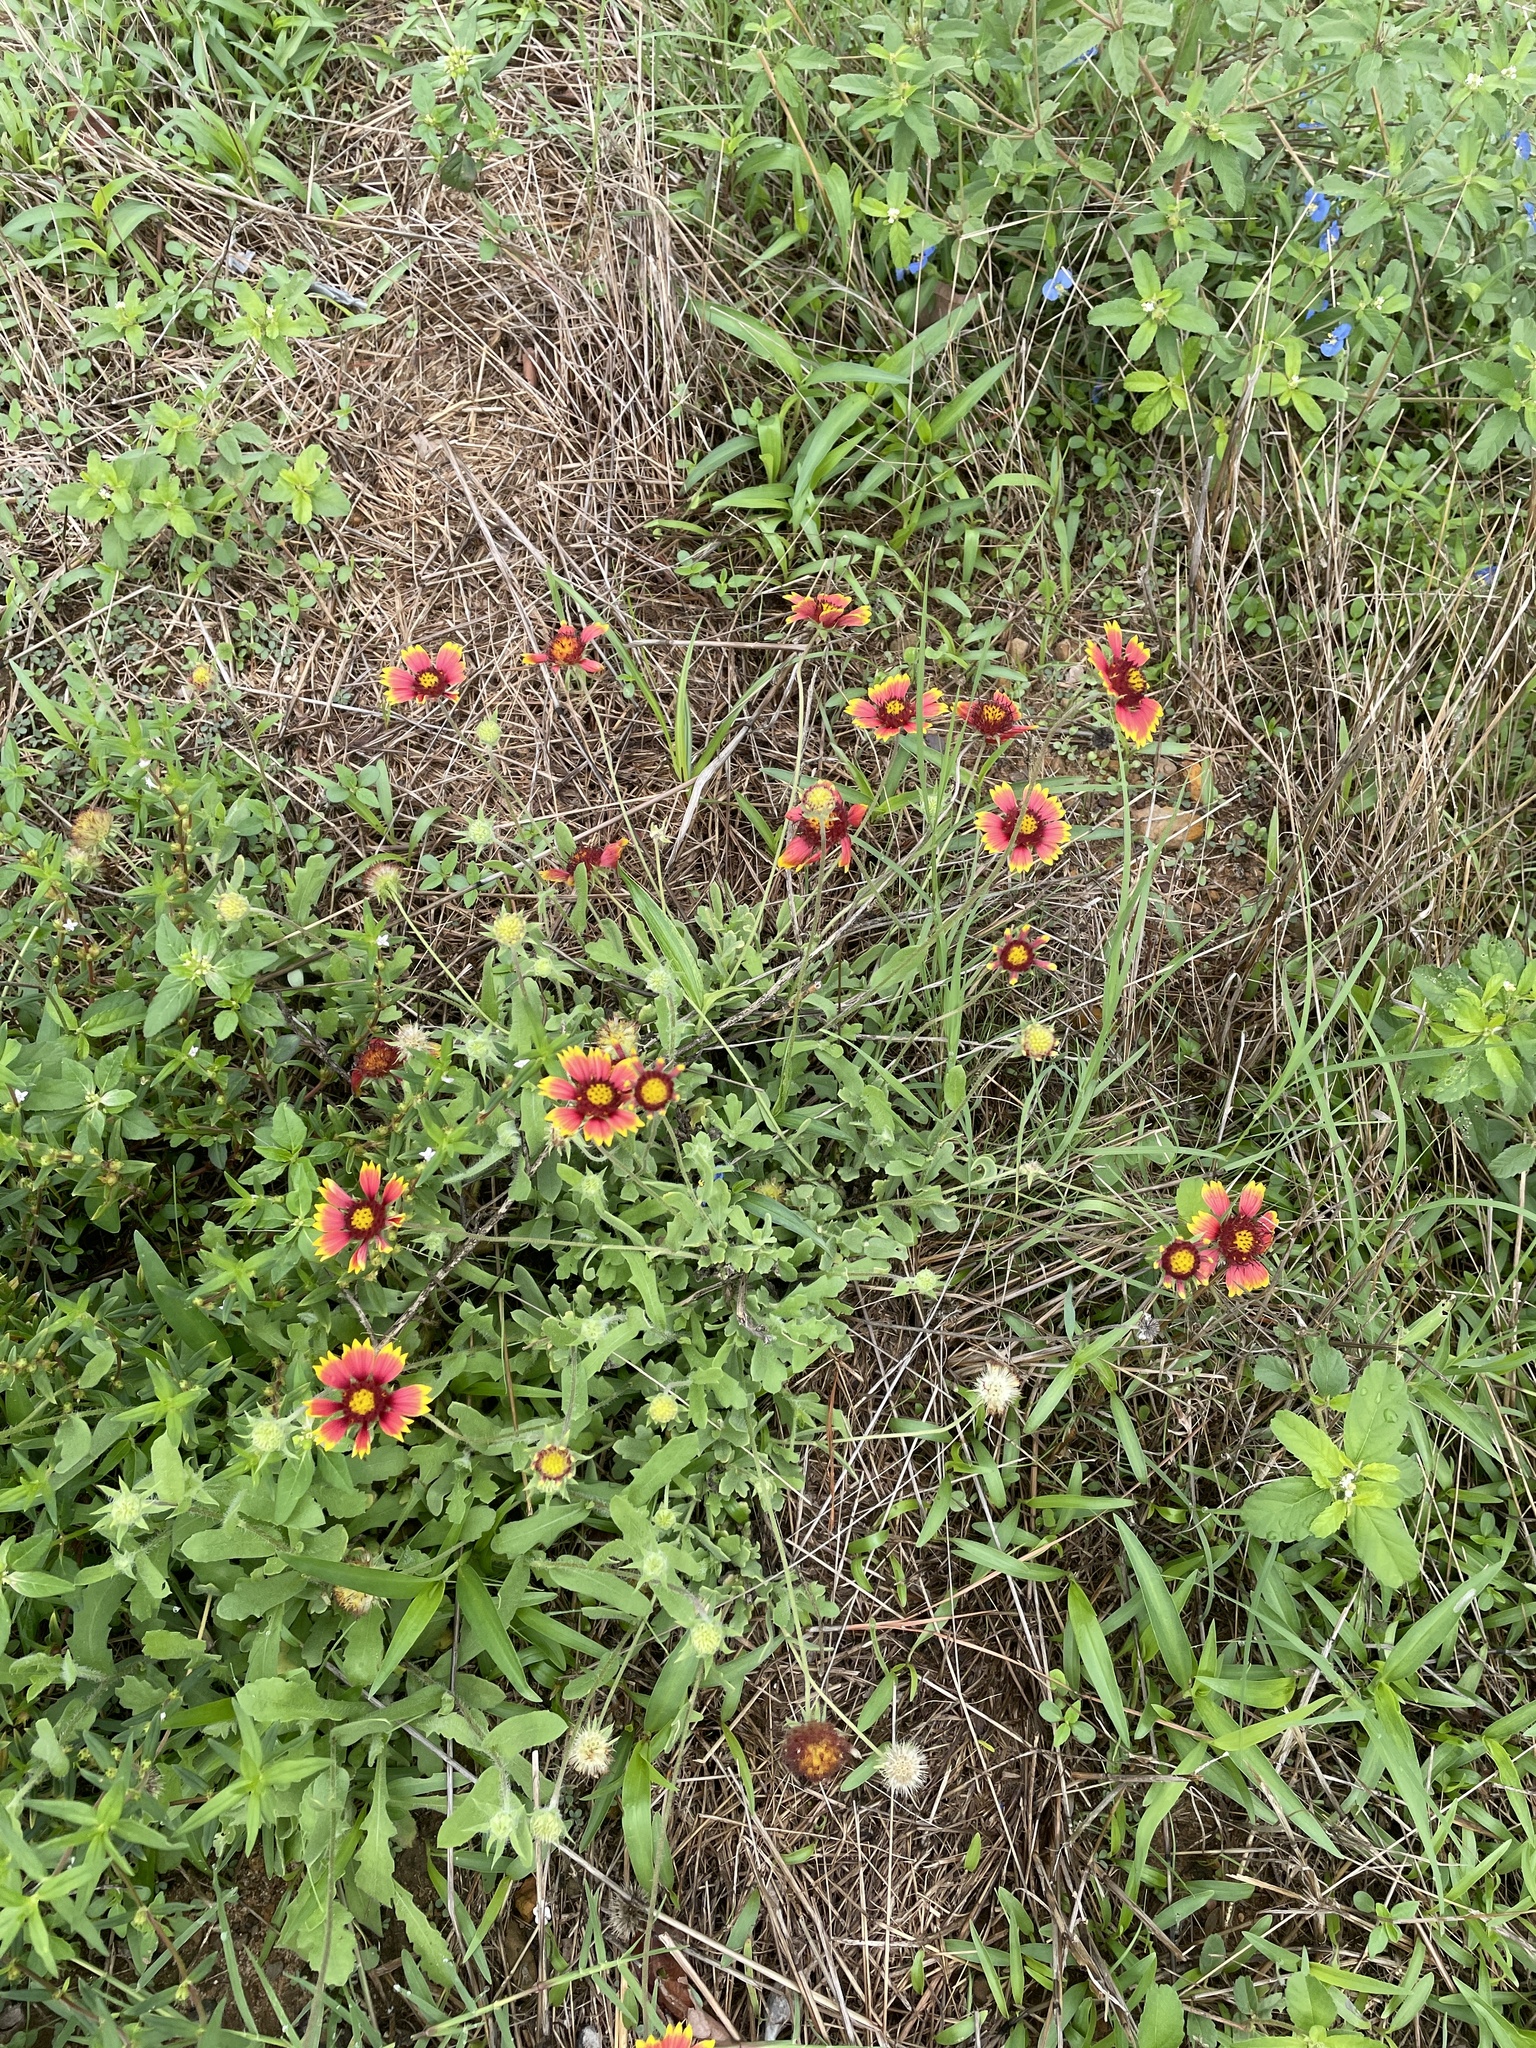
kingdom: Plantae
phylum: Tracheophyta
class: Magnoliopsida
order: Asterales
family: Asteraceae
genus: Gaillardia
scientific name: Gaillardia pulchella
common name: Firewheel
